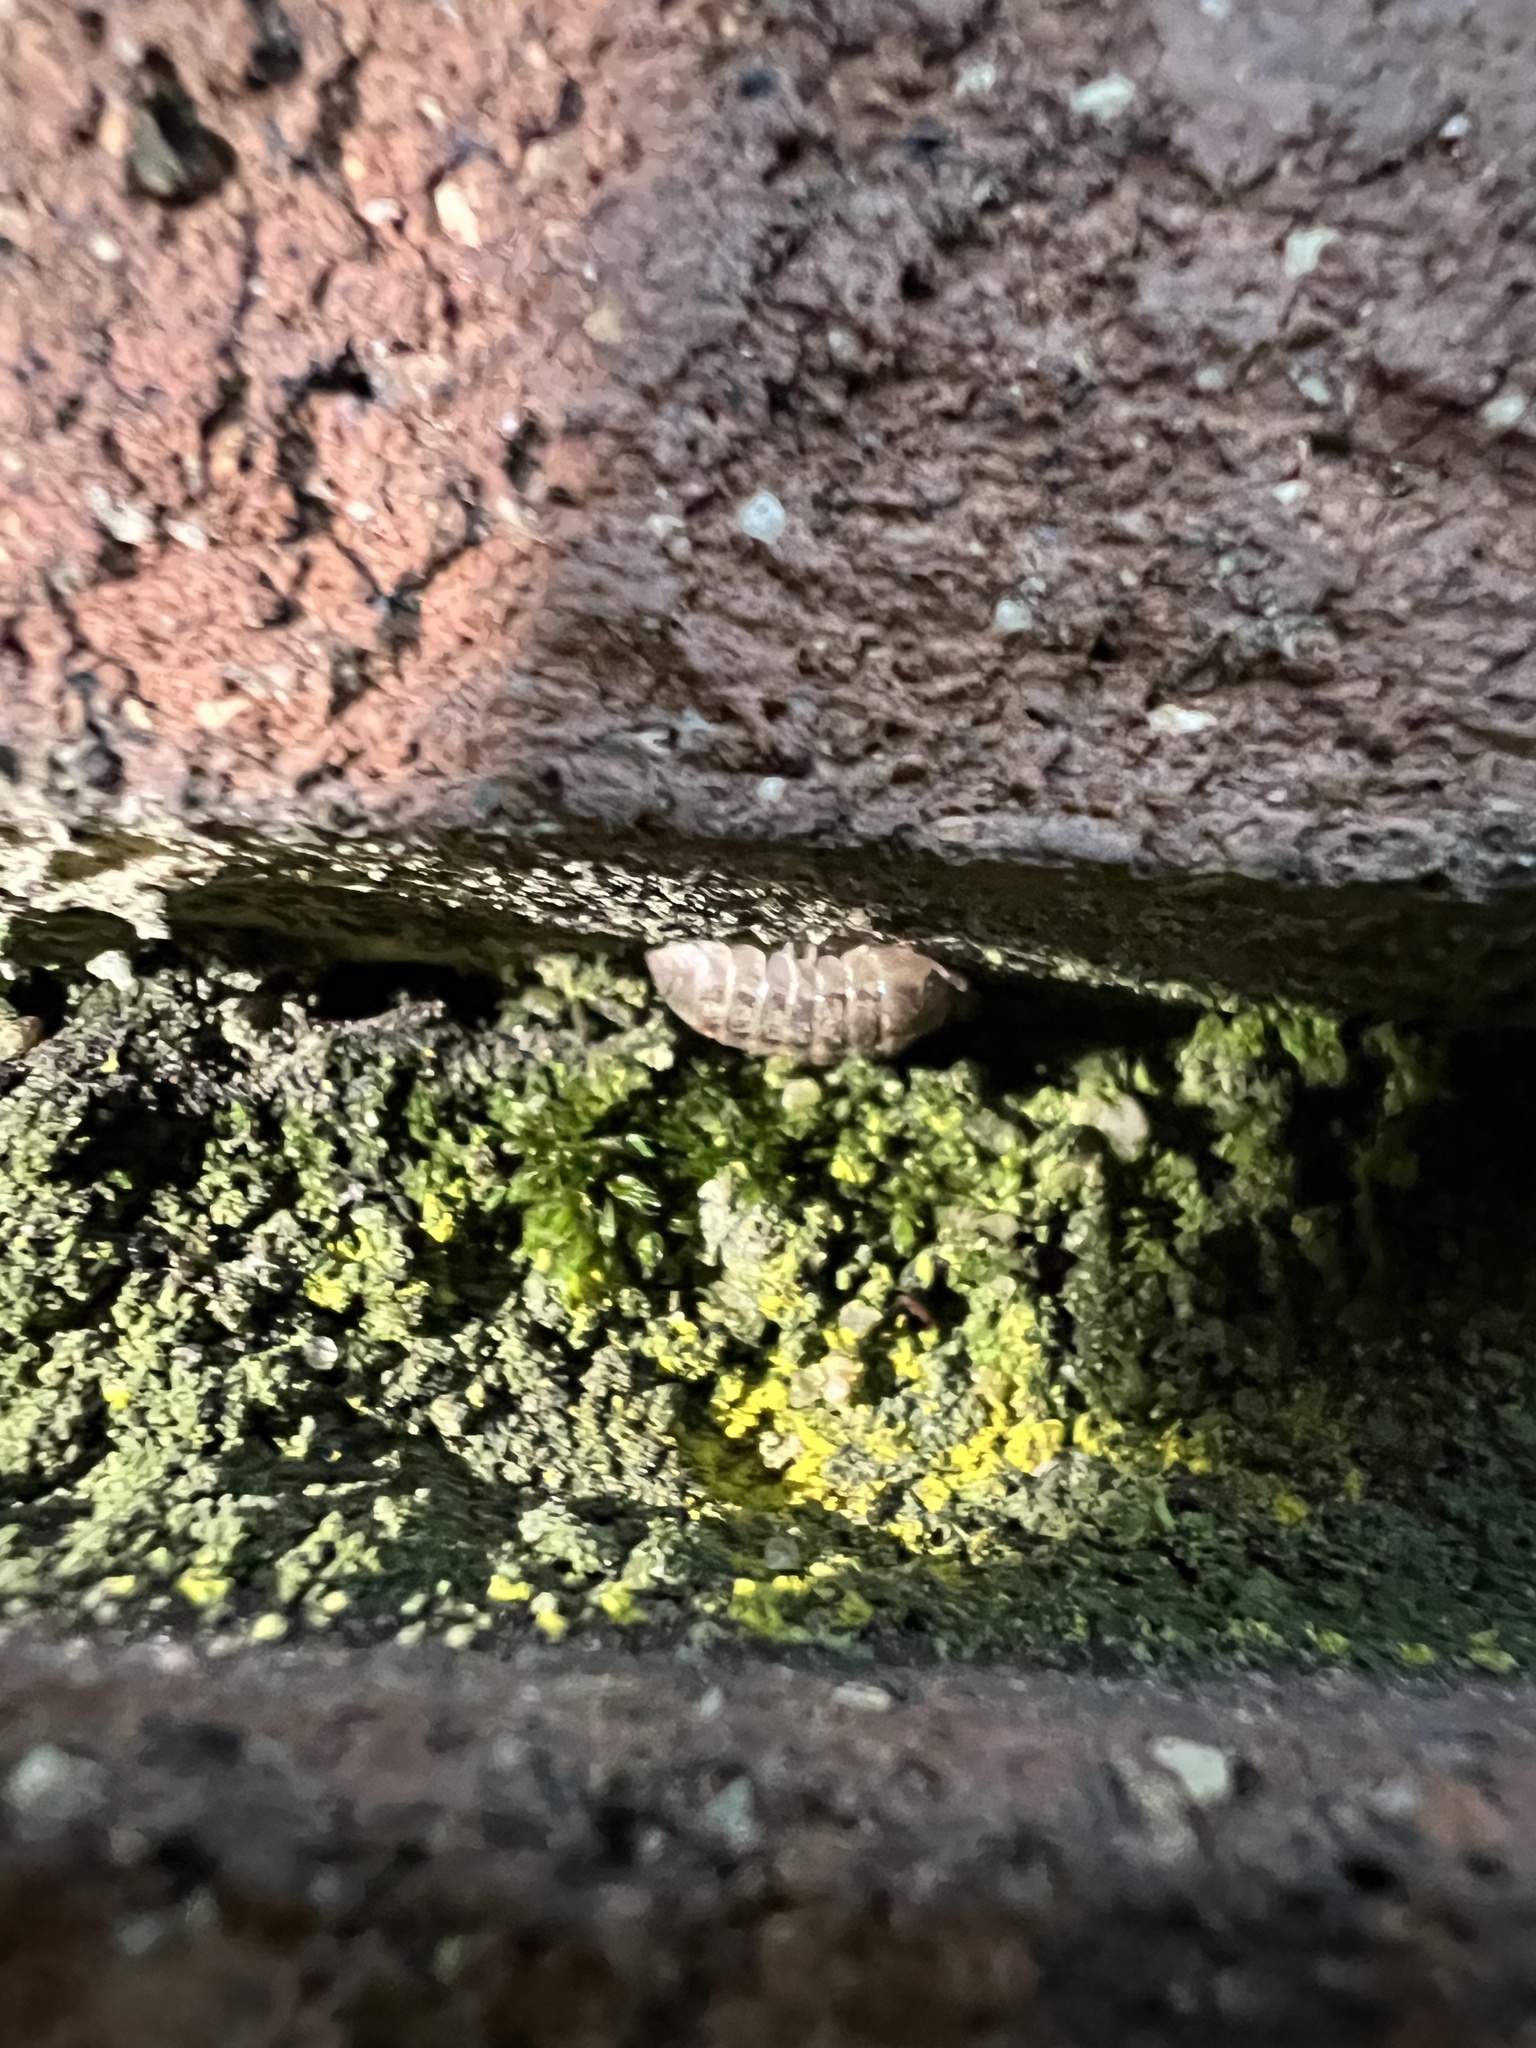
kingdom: Animalia
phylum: Arthropoda
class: Malacostraca
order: Isopoda
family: Armadillidiidae
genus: Armadillidium
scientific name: Armadillidium vulgare
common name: Common pill woodlouse
